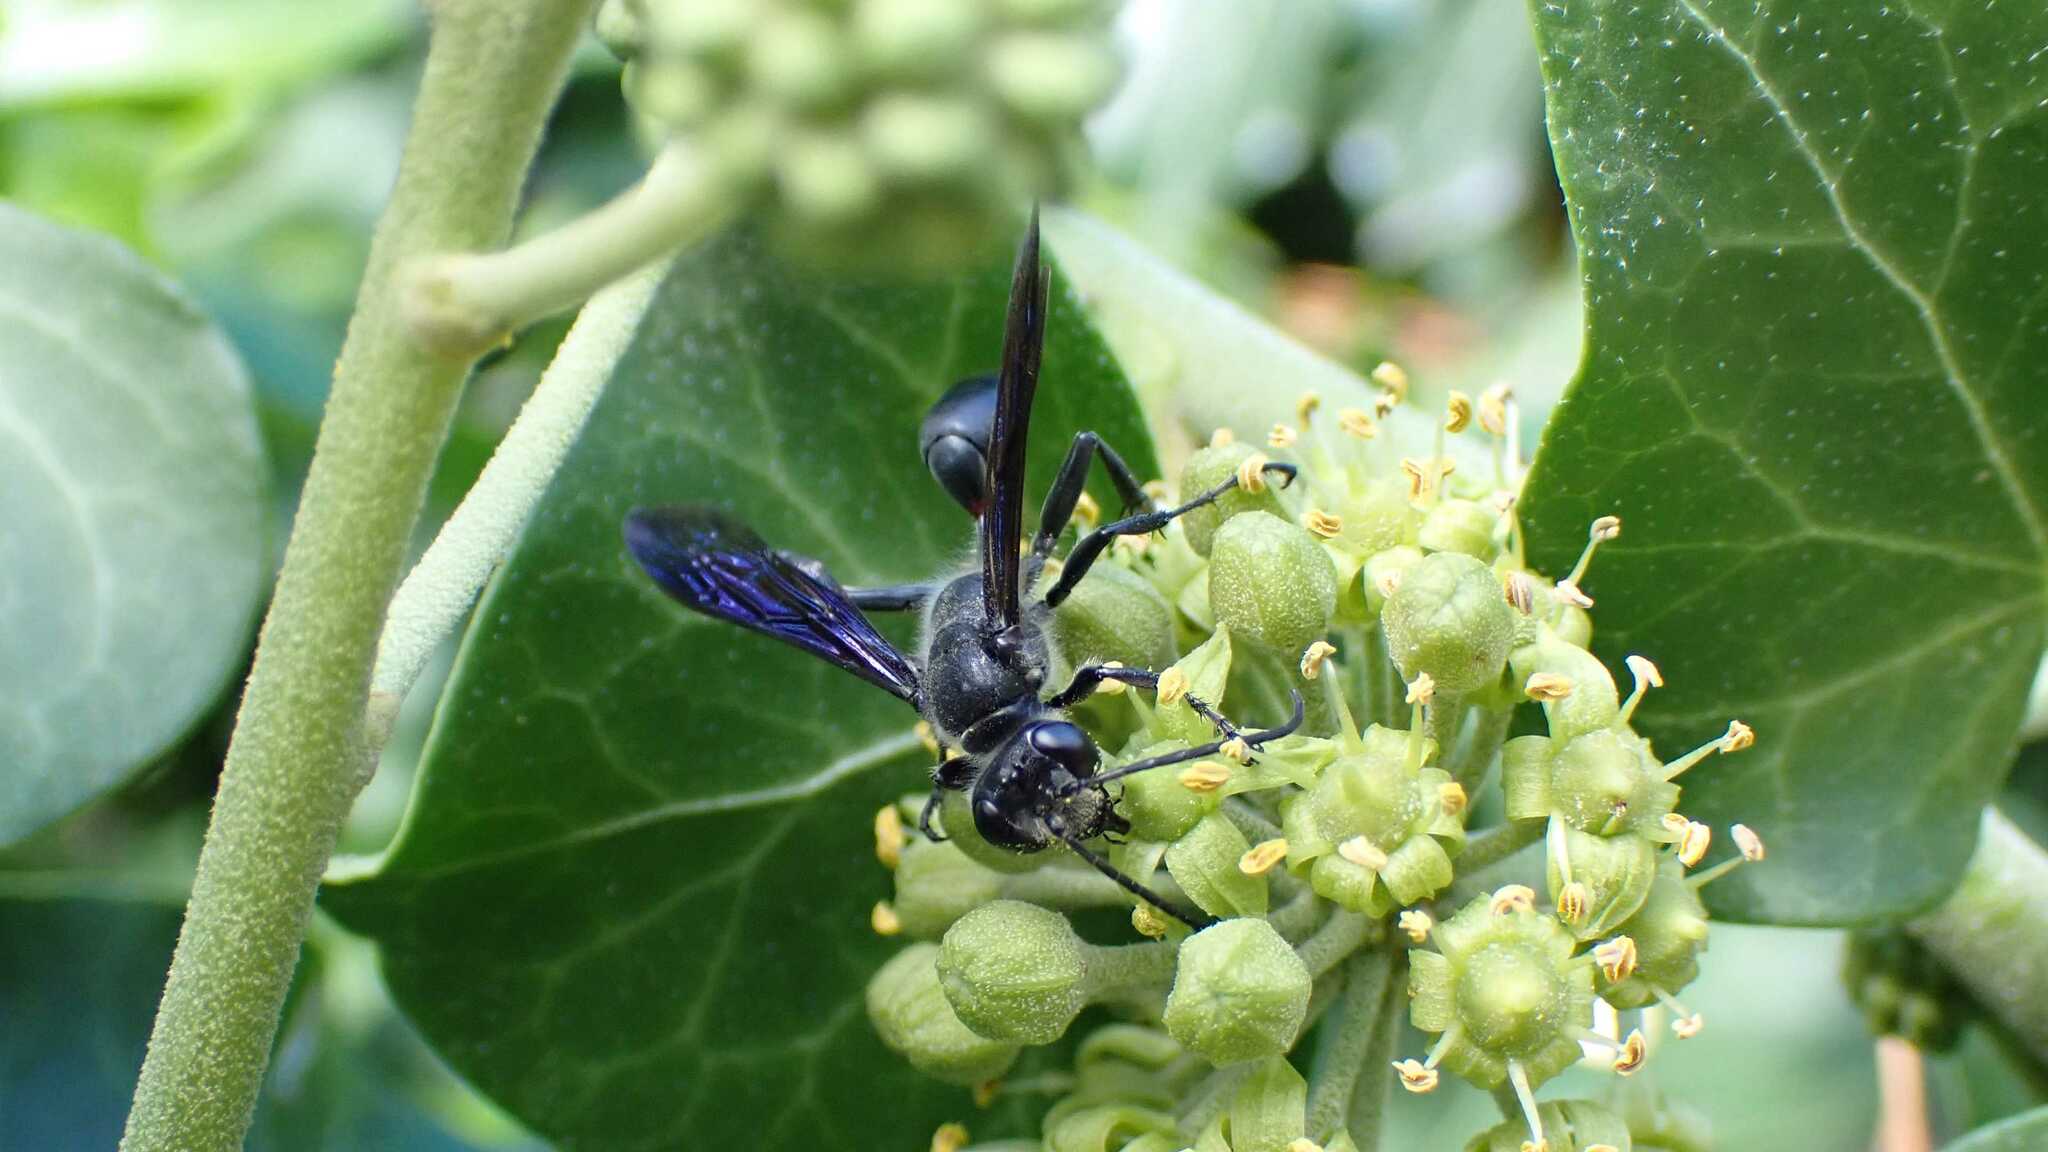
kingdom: Animalia
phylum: Arthropoda
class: Insecta
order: Hymenoptera
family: Sphecidae
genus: Isodontia
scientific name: Isodontia mexicana
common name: Mud dauber
